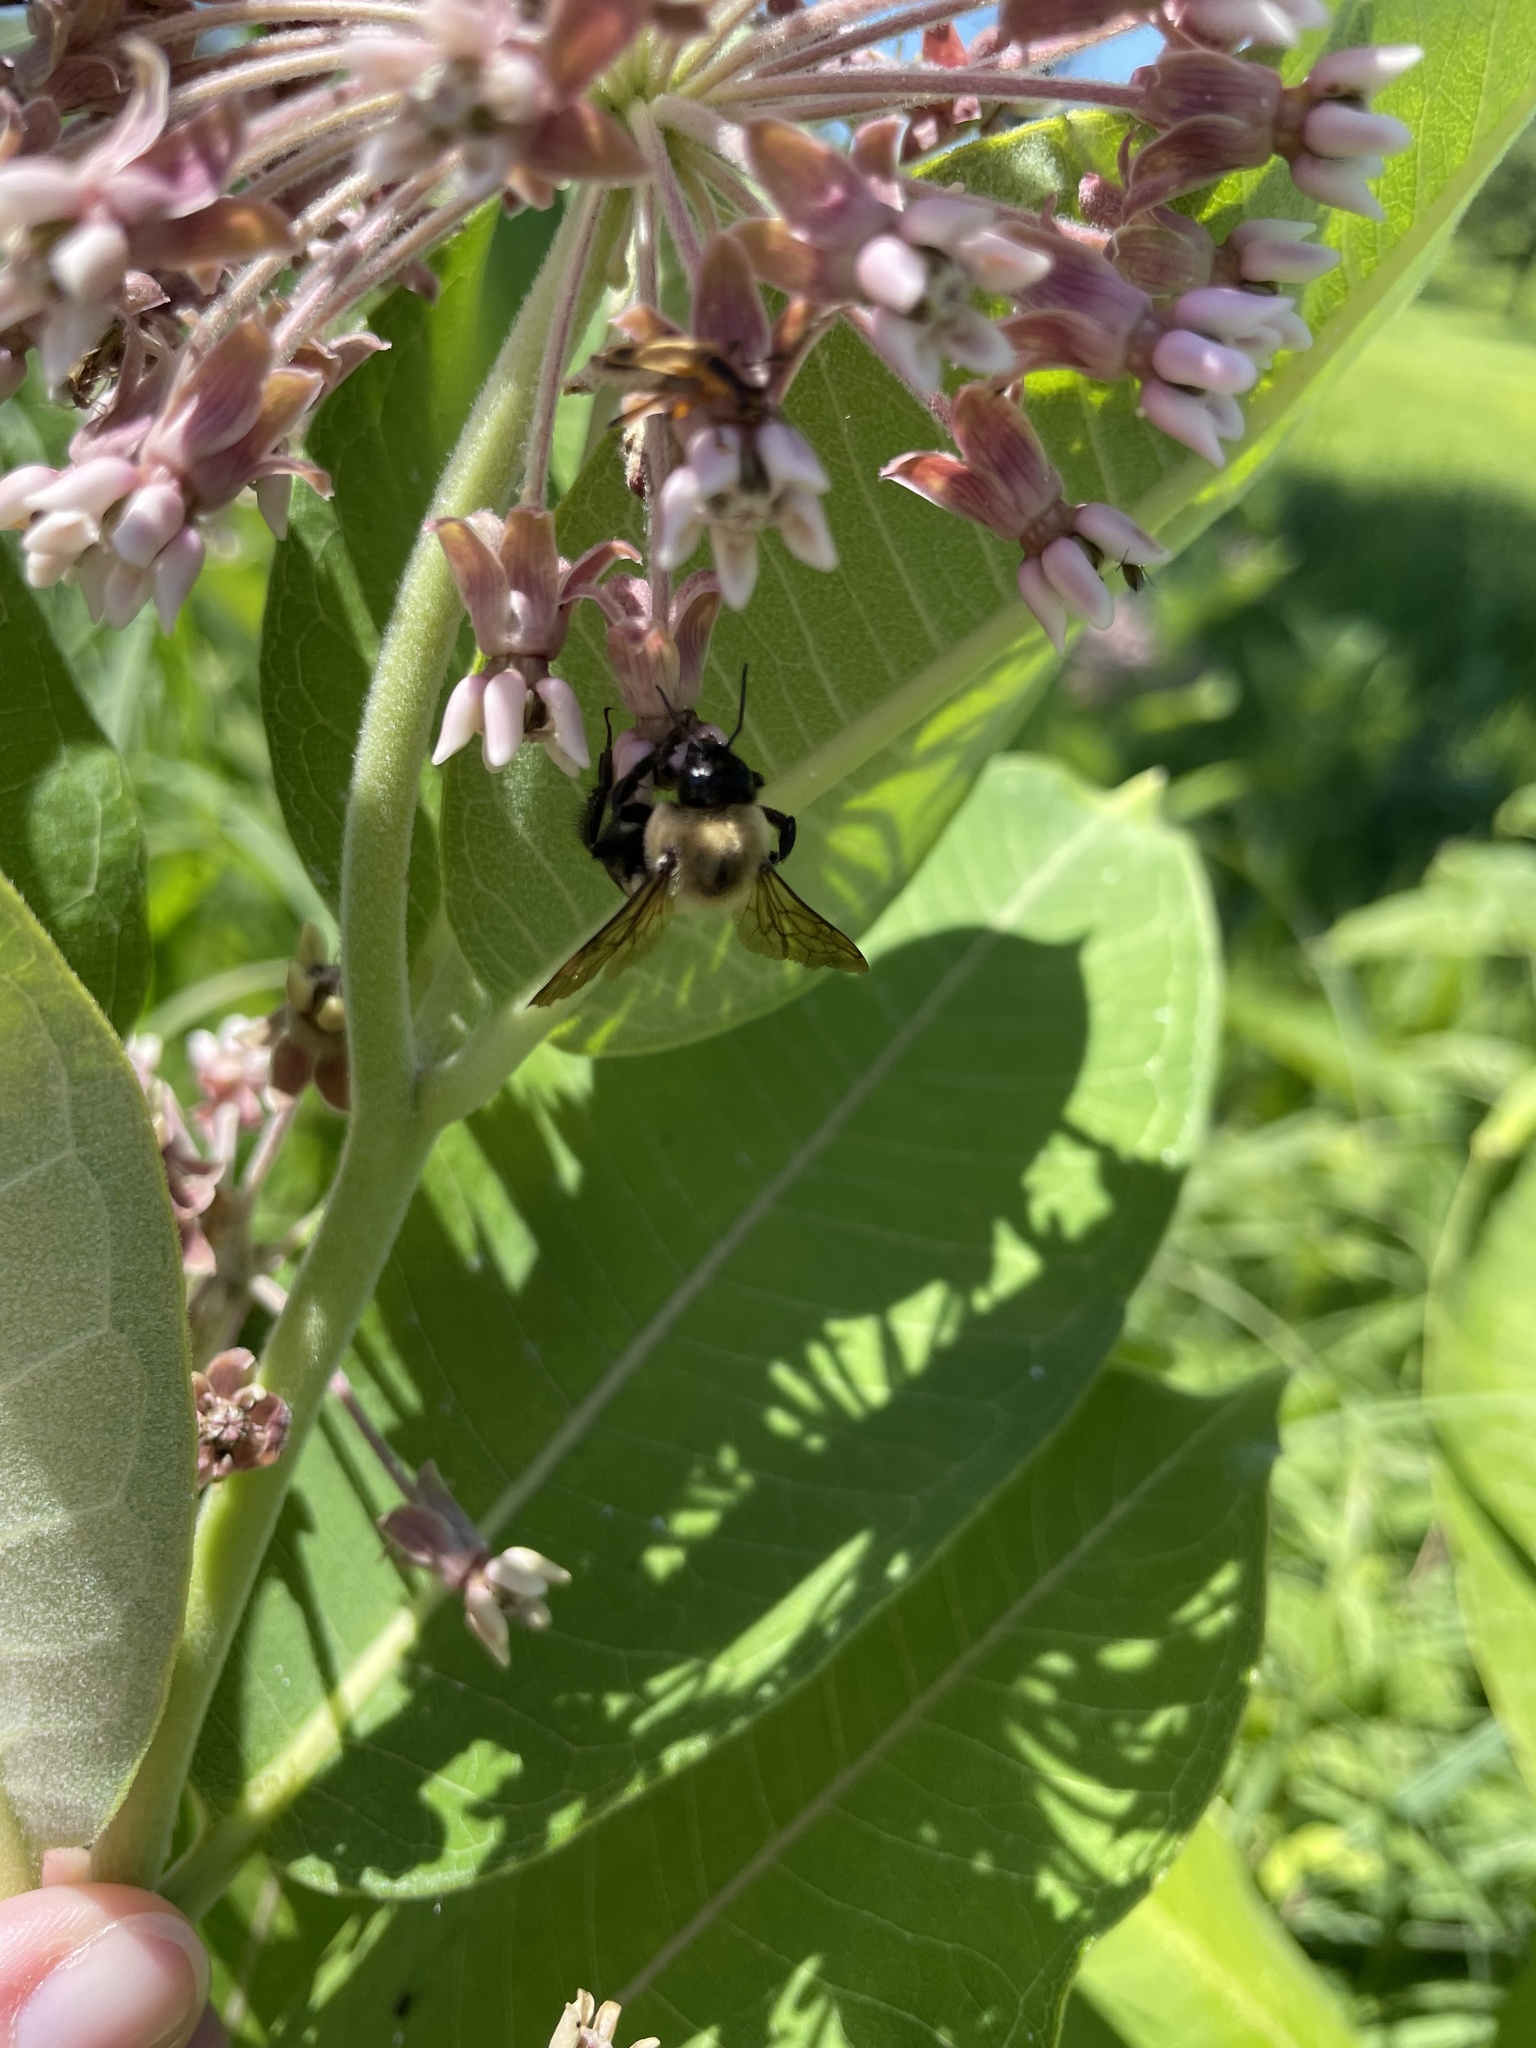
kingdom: Animalia
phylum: Arthropoda
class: Insecta
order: Hymenoptera
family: Apidae
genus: Bombus
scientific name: Bombus griseocollis
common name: Brown-belted bumble bee
